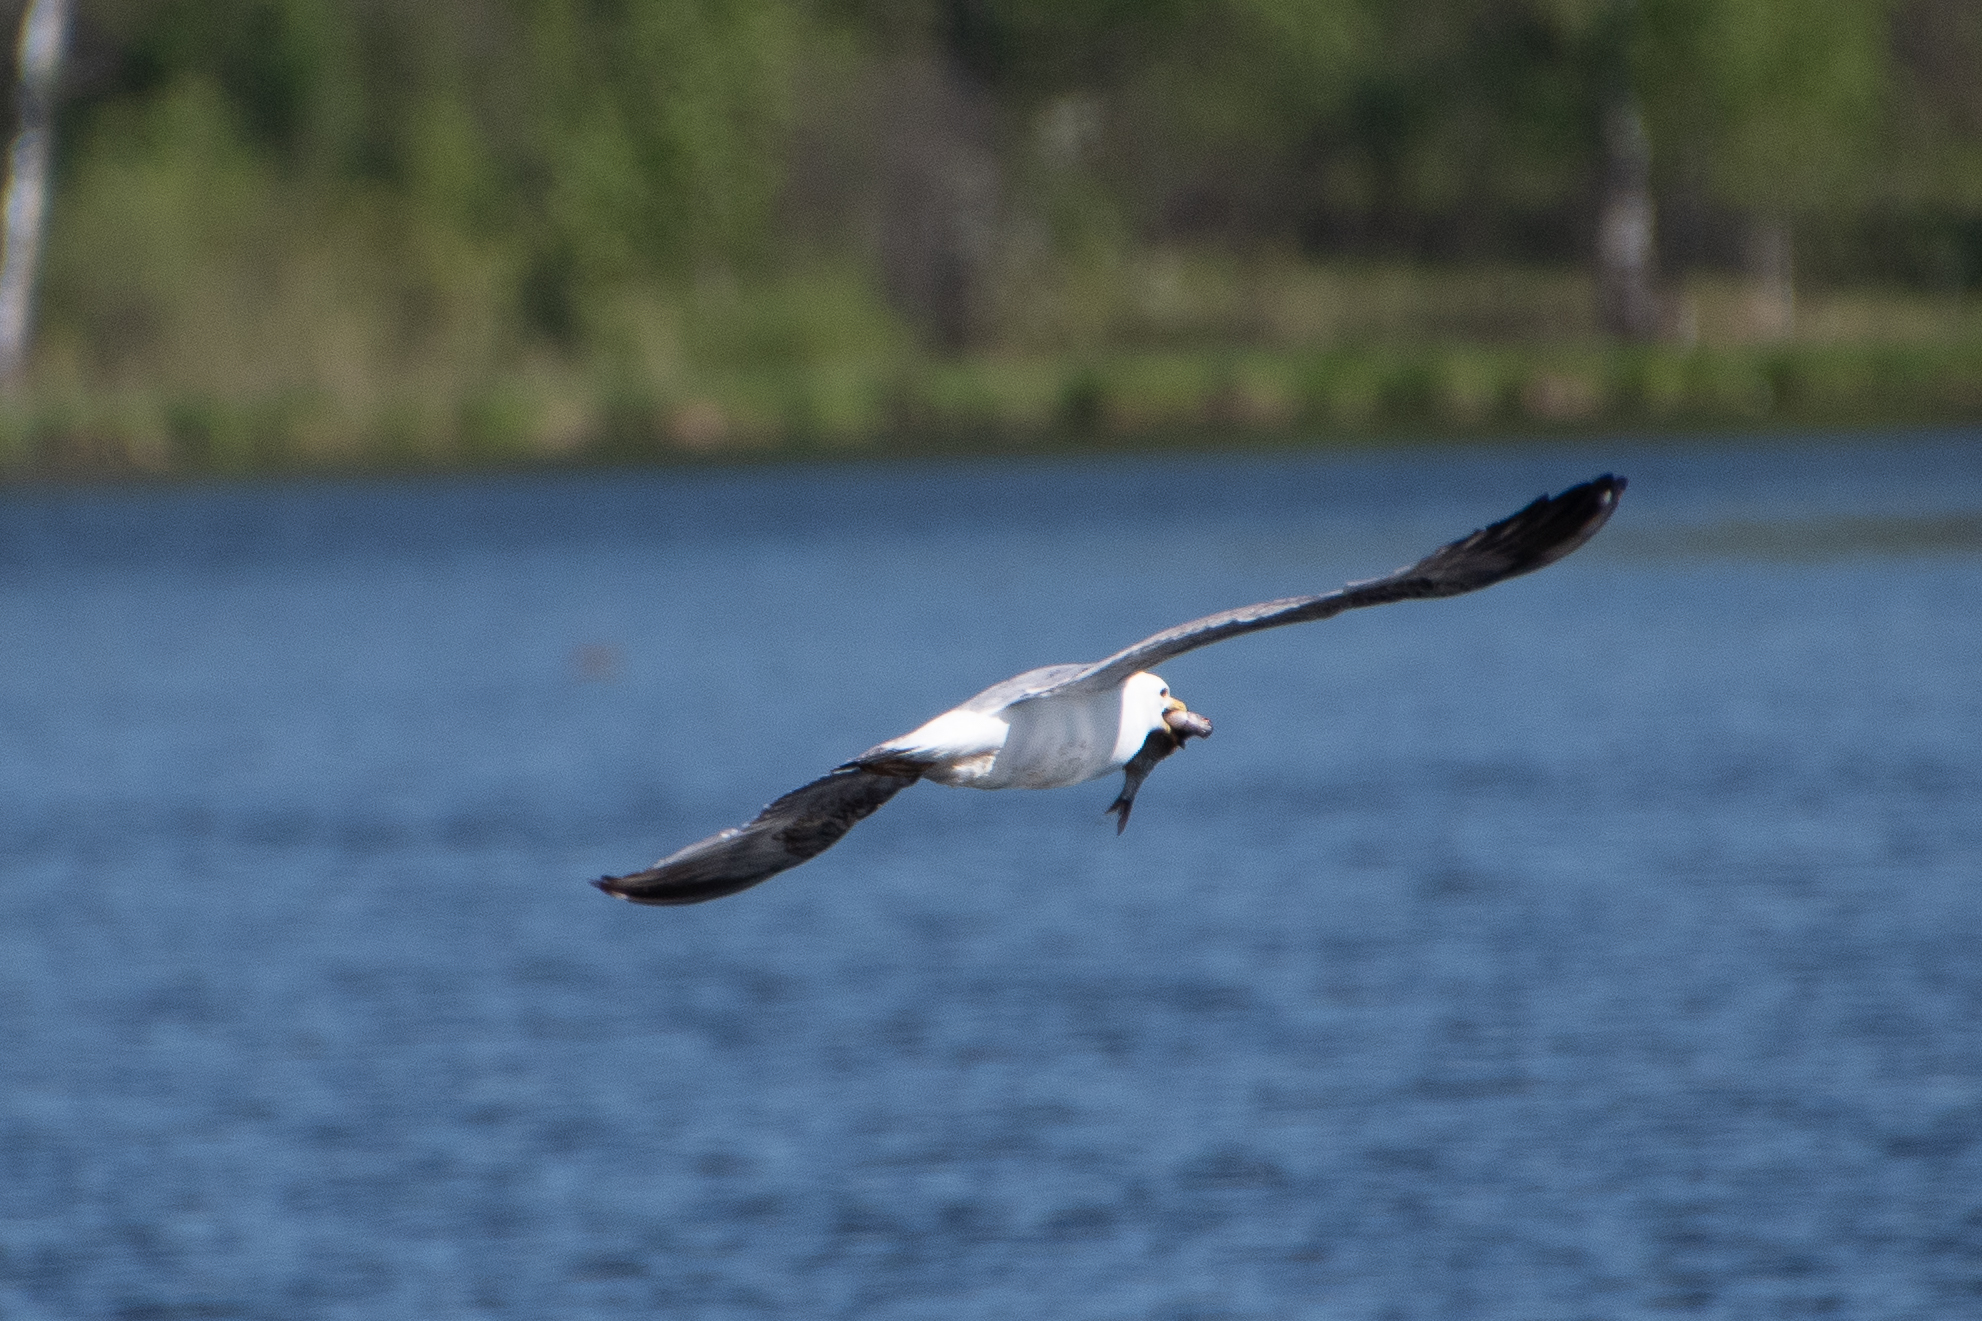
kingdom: Animalia
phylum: Chordata
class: Aves
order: Charadriiformes
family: Laridae
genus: Larus
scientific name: Larus cachinnans
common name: Caspian gull
